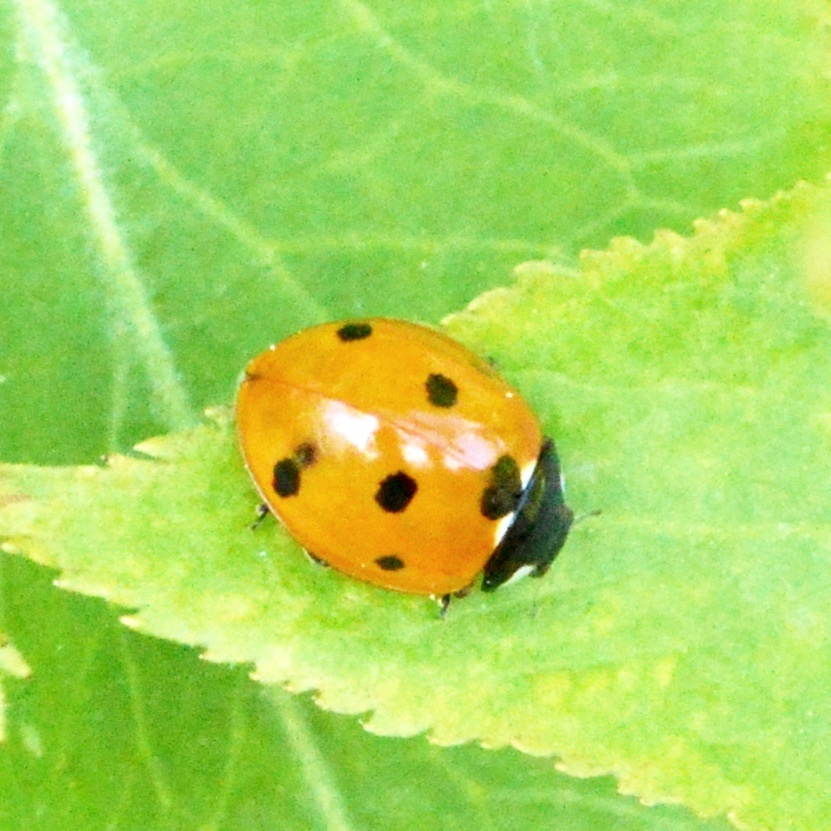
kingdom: Animalia
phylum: Arthropoda
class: Insecta
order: Coleoptera
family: Coccinellidae
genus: Coccinella
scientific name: Coccinella septempunctata
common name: Sevenspotted lady beetle
